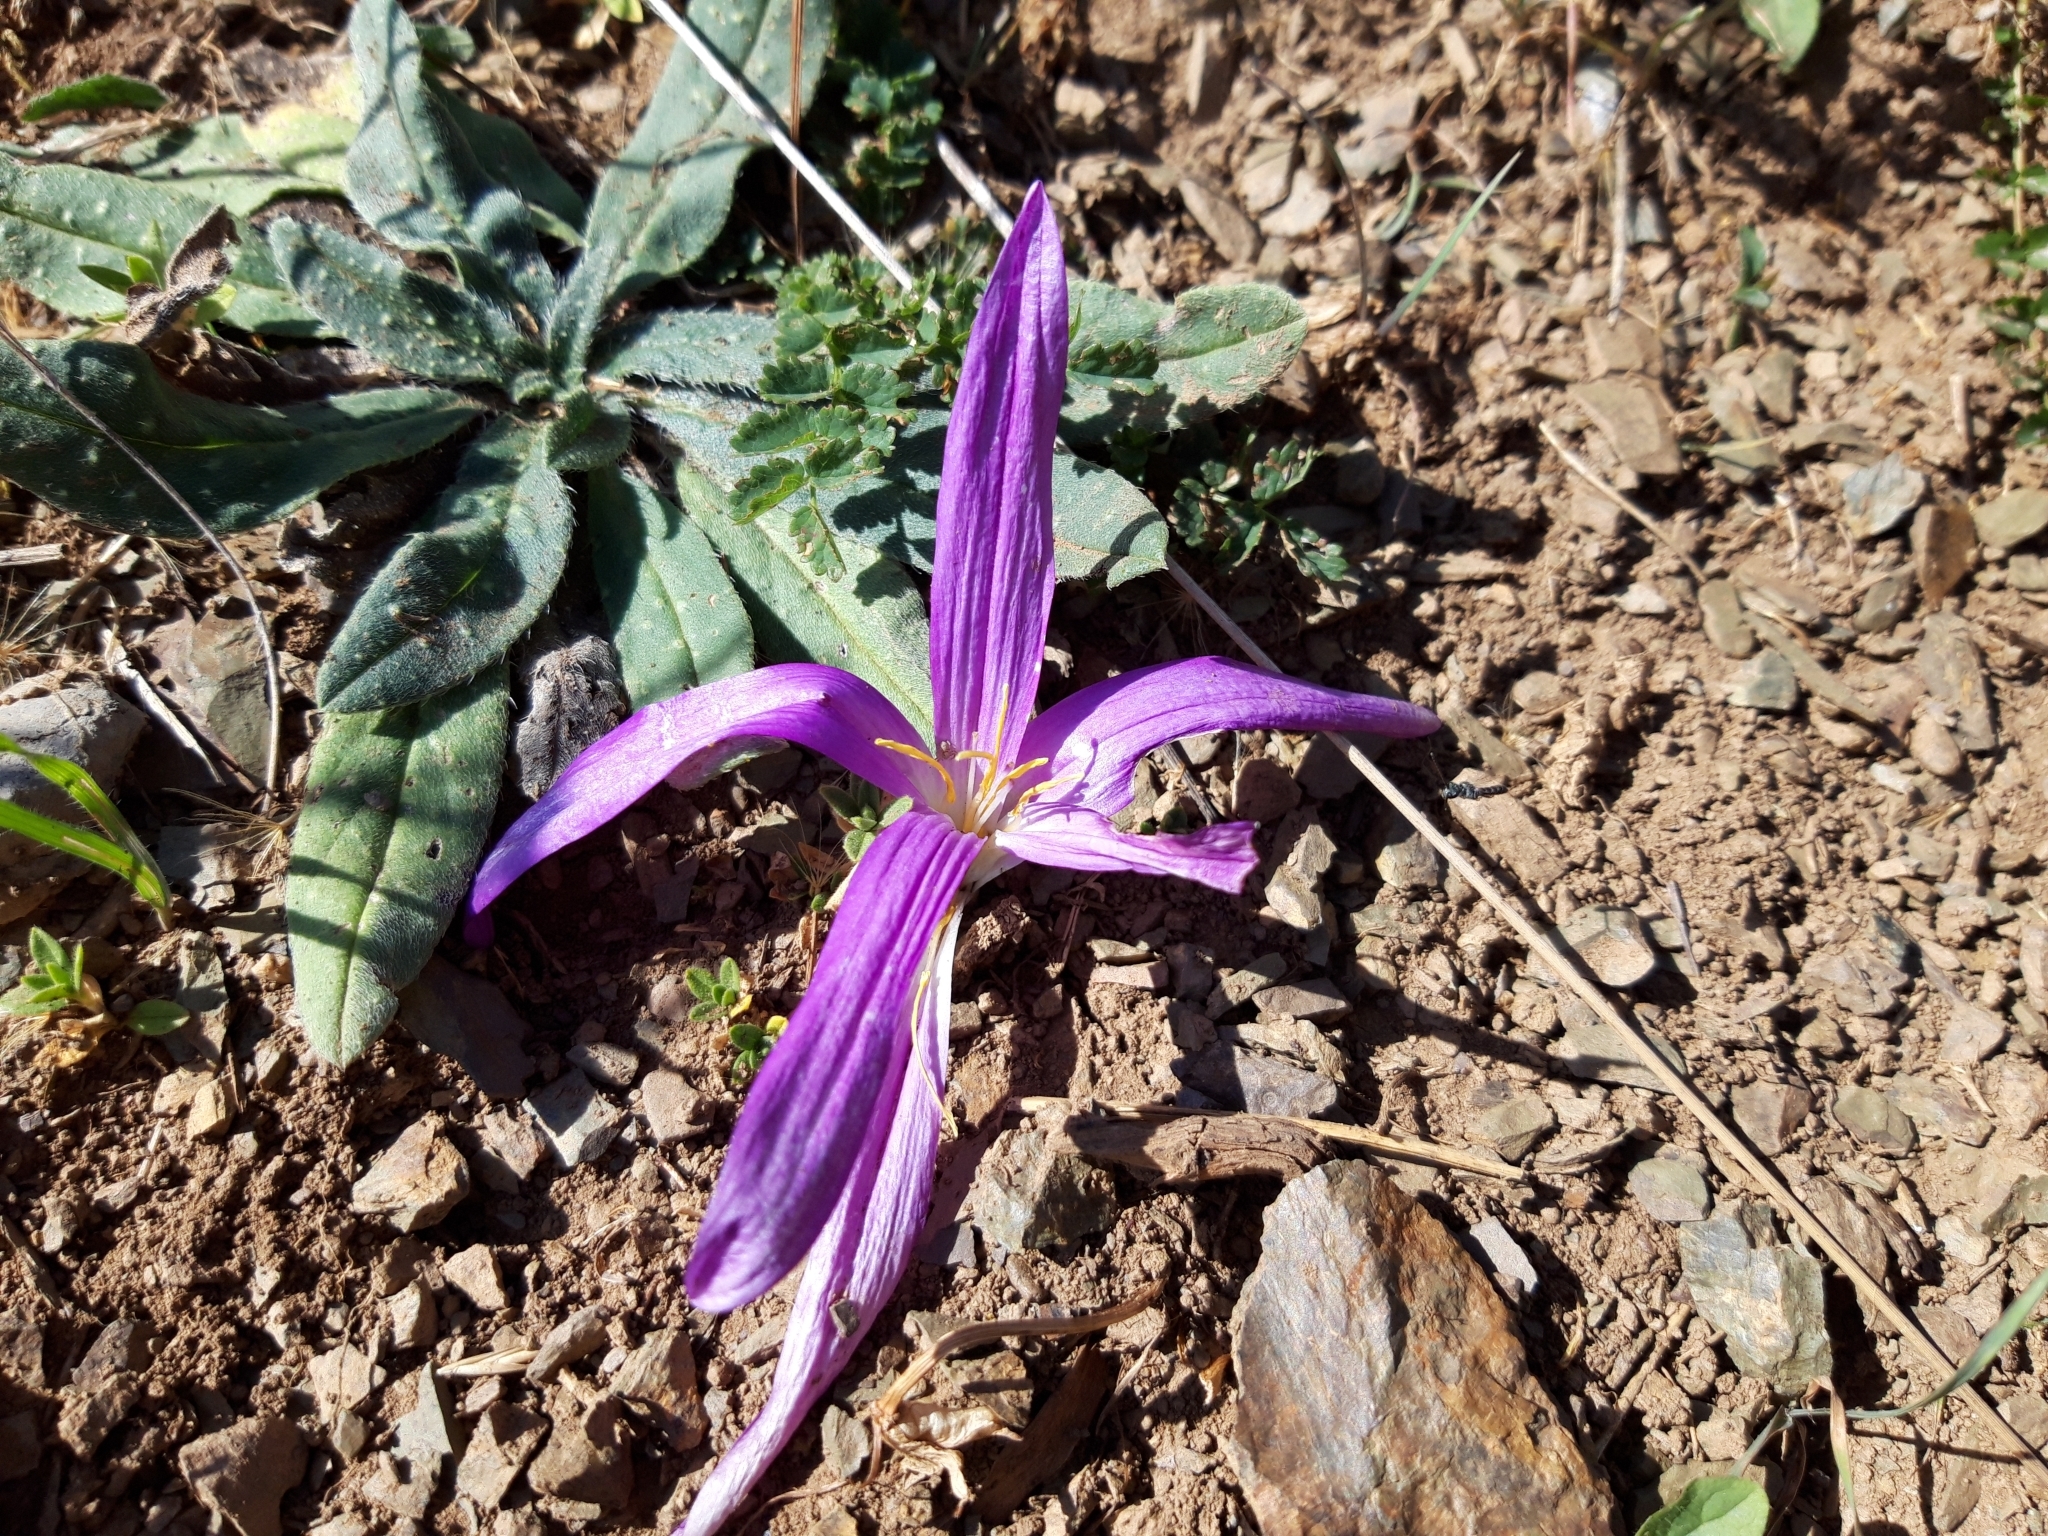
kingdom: Plantae
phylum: Tracheophyta
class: Liliopsida
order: Liliales
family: Colchicaceae
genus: Colchicum
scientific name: Colchicum montanum
